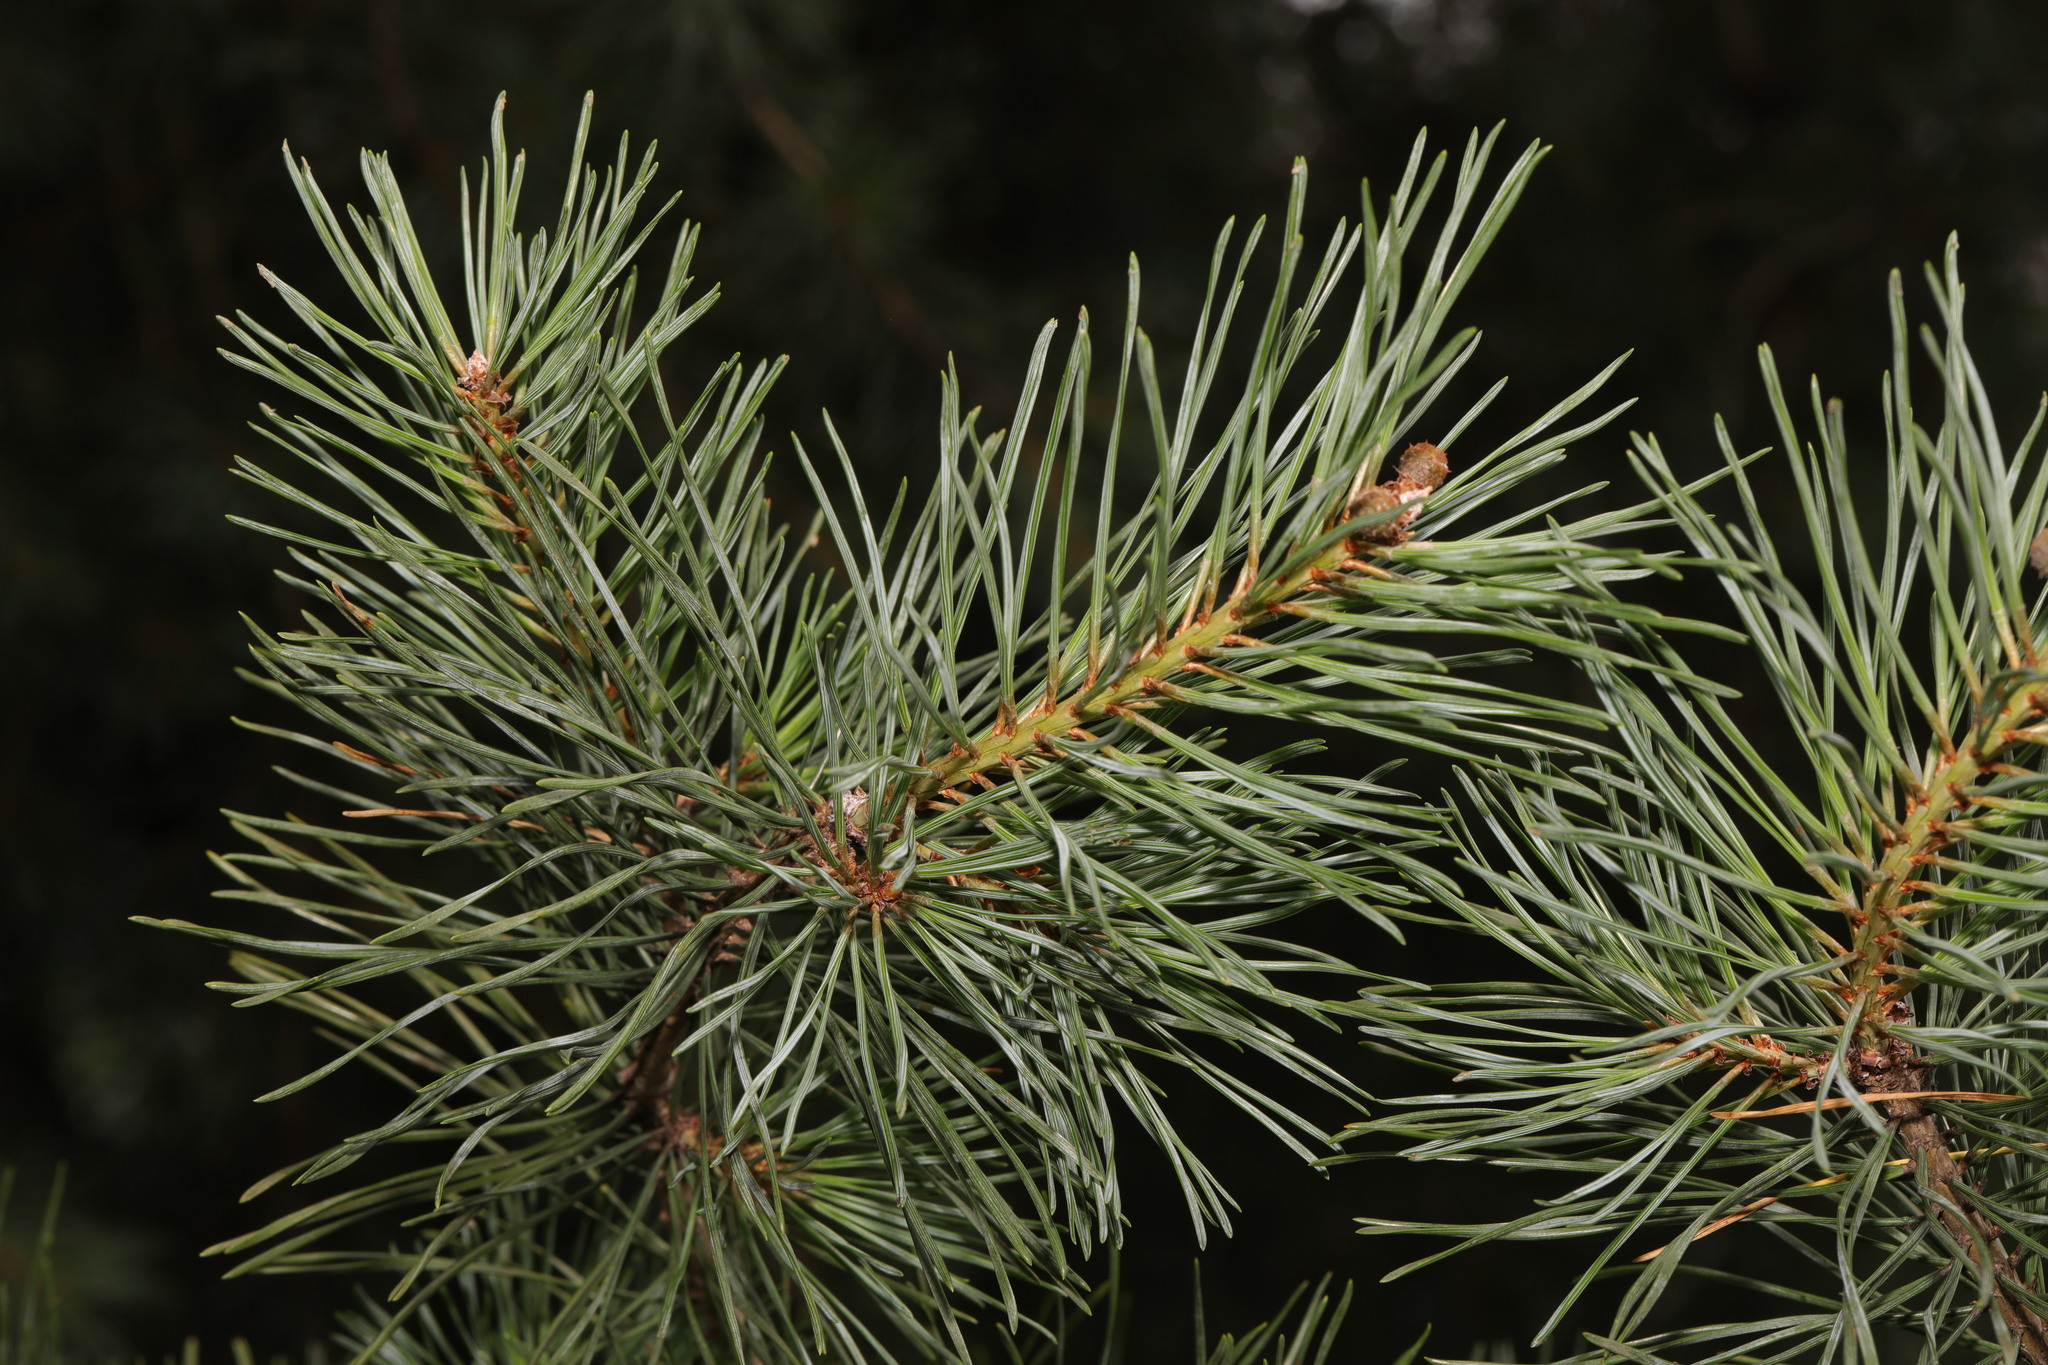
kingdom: Plantae
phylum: Tracheophyta
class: Pinopsida
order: Pinales
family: Pinaceae
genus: Pinus
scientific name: Pinus sylvestris
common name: Scots pine
